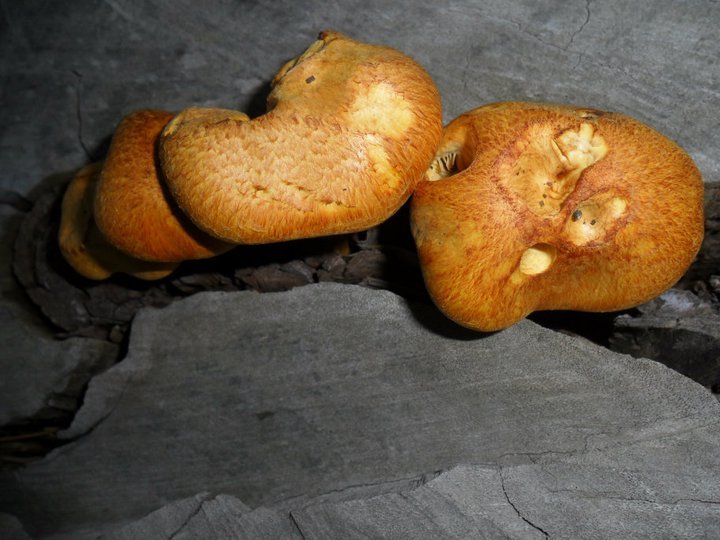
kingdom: Fungi
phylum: Basidiomycota
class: Agaricomycetes
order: Agaricales
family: Hymenogastraceae
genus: Gymnopilus
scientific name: Gymnopilus junonius
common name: Spectacular rustgill
